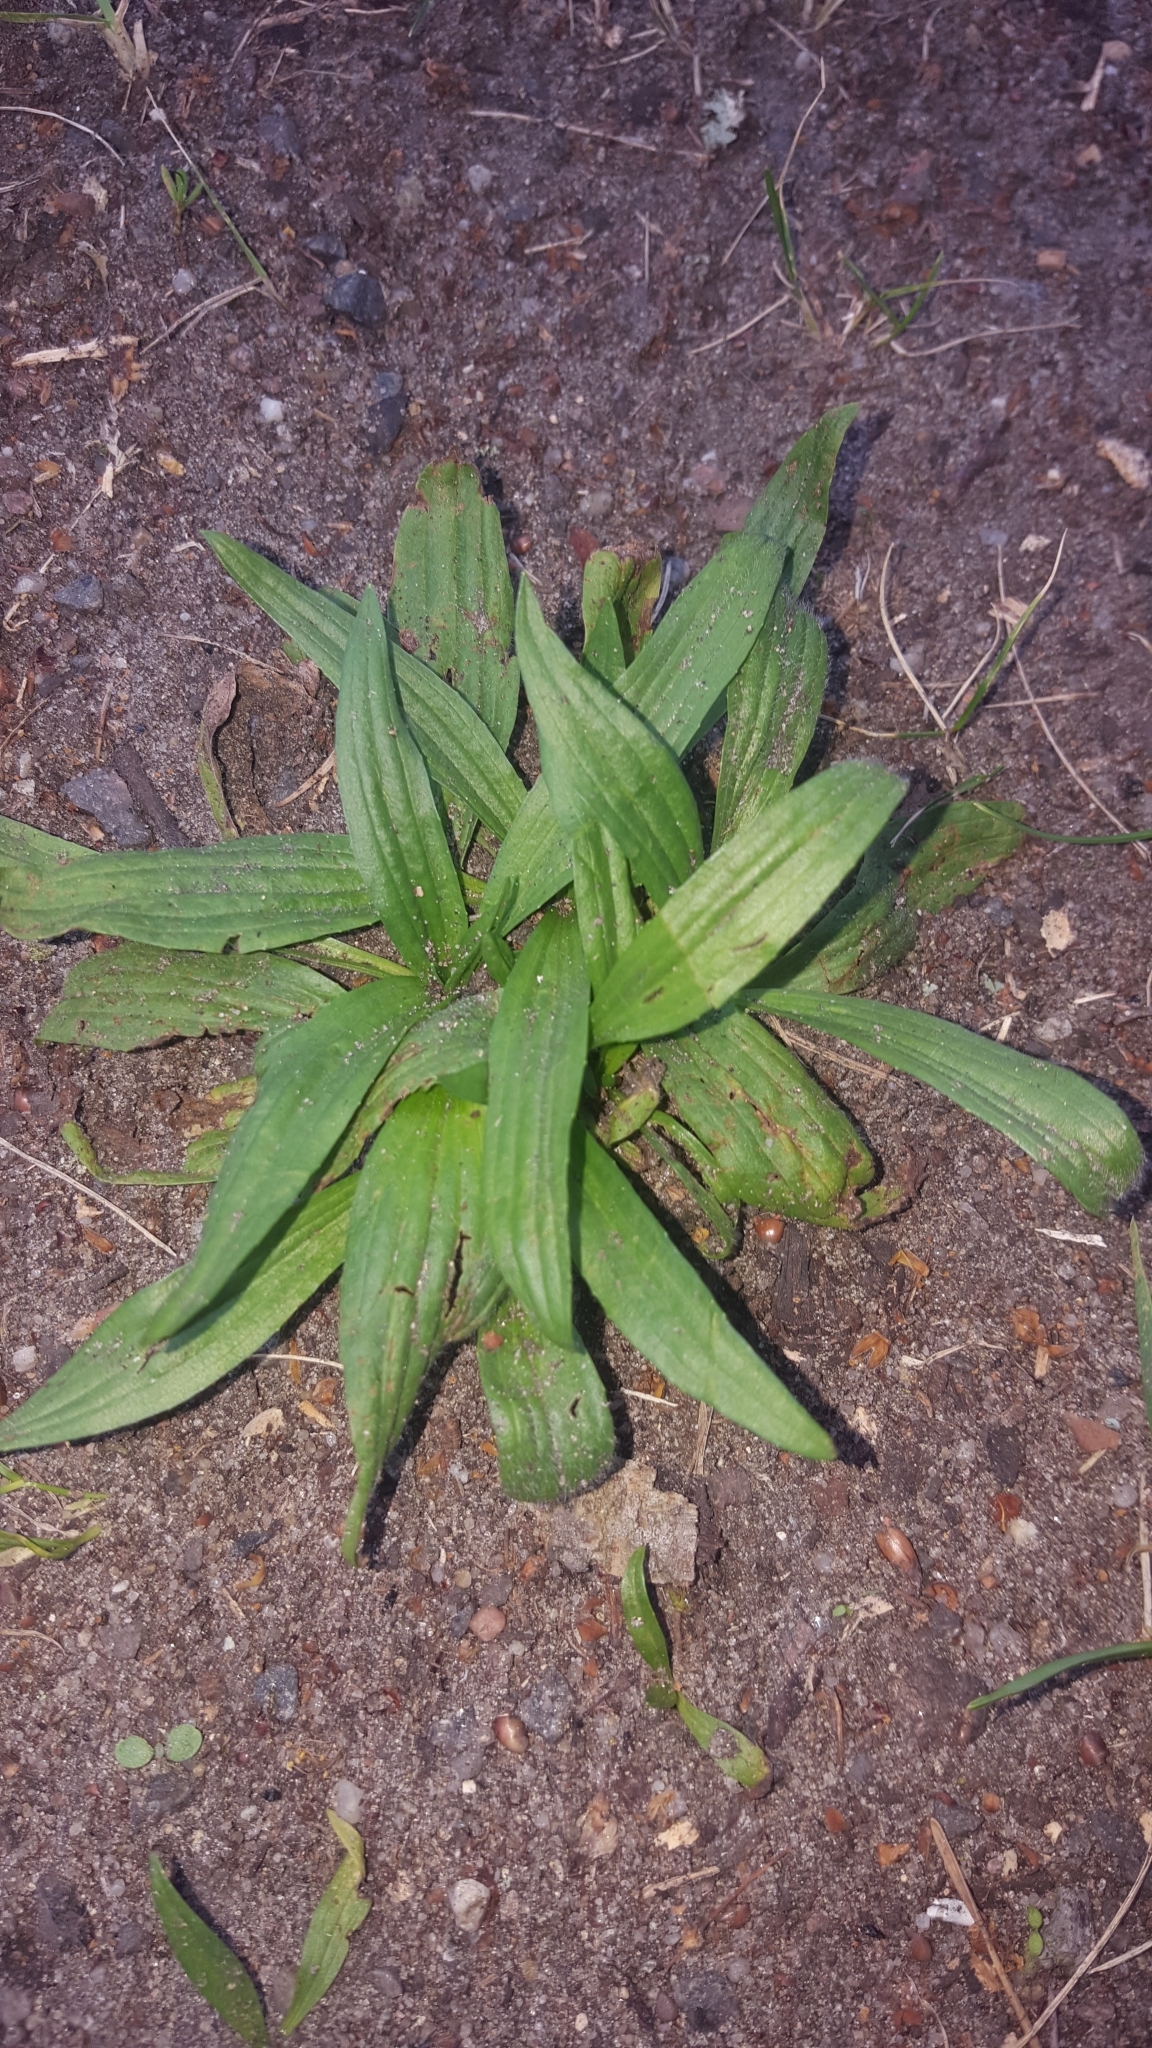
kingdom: Plantae
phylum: Tracheophyta
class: Magnoliopsida
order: Lamiales
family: Plantaginaceae
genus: Plantago
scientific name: Plantago lanceolata
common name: Ribwort plantain
